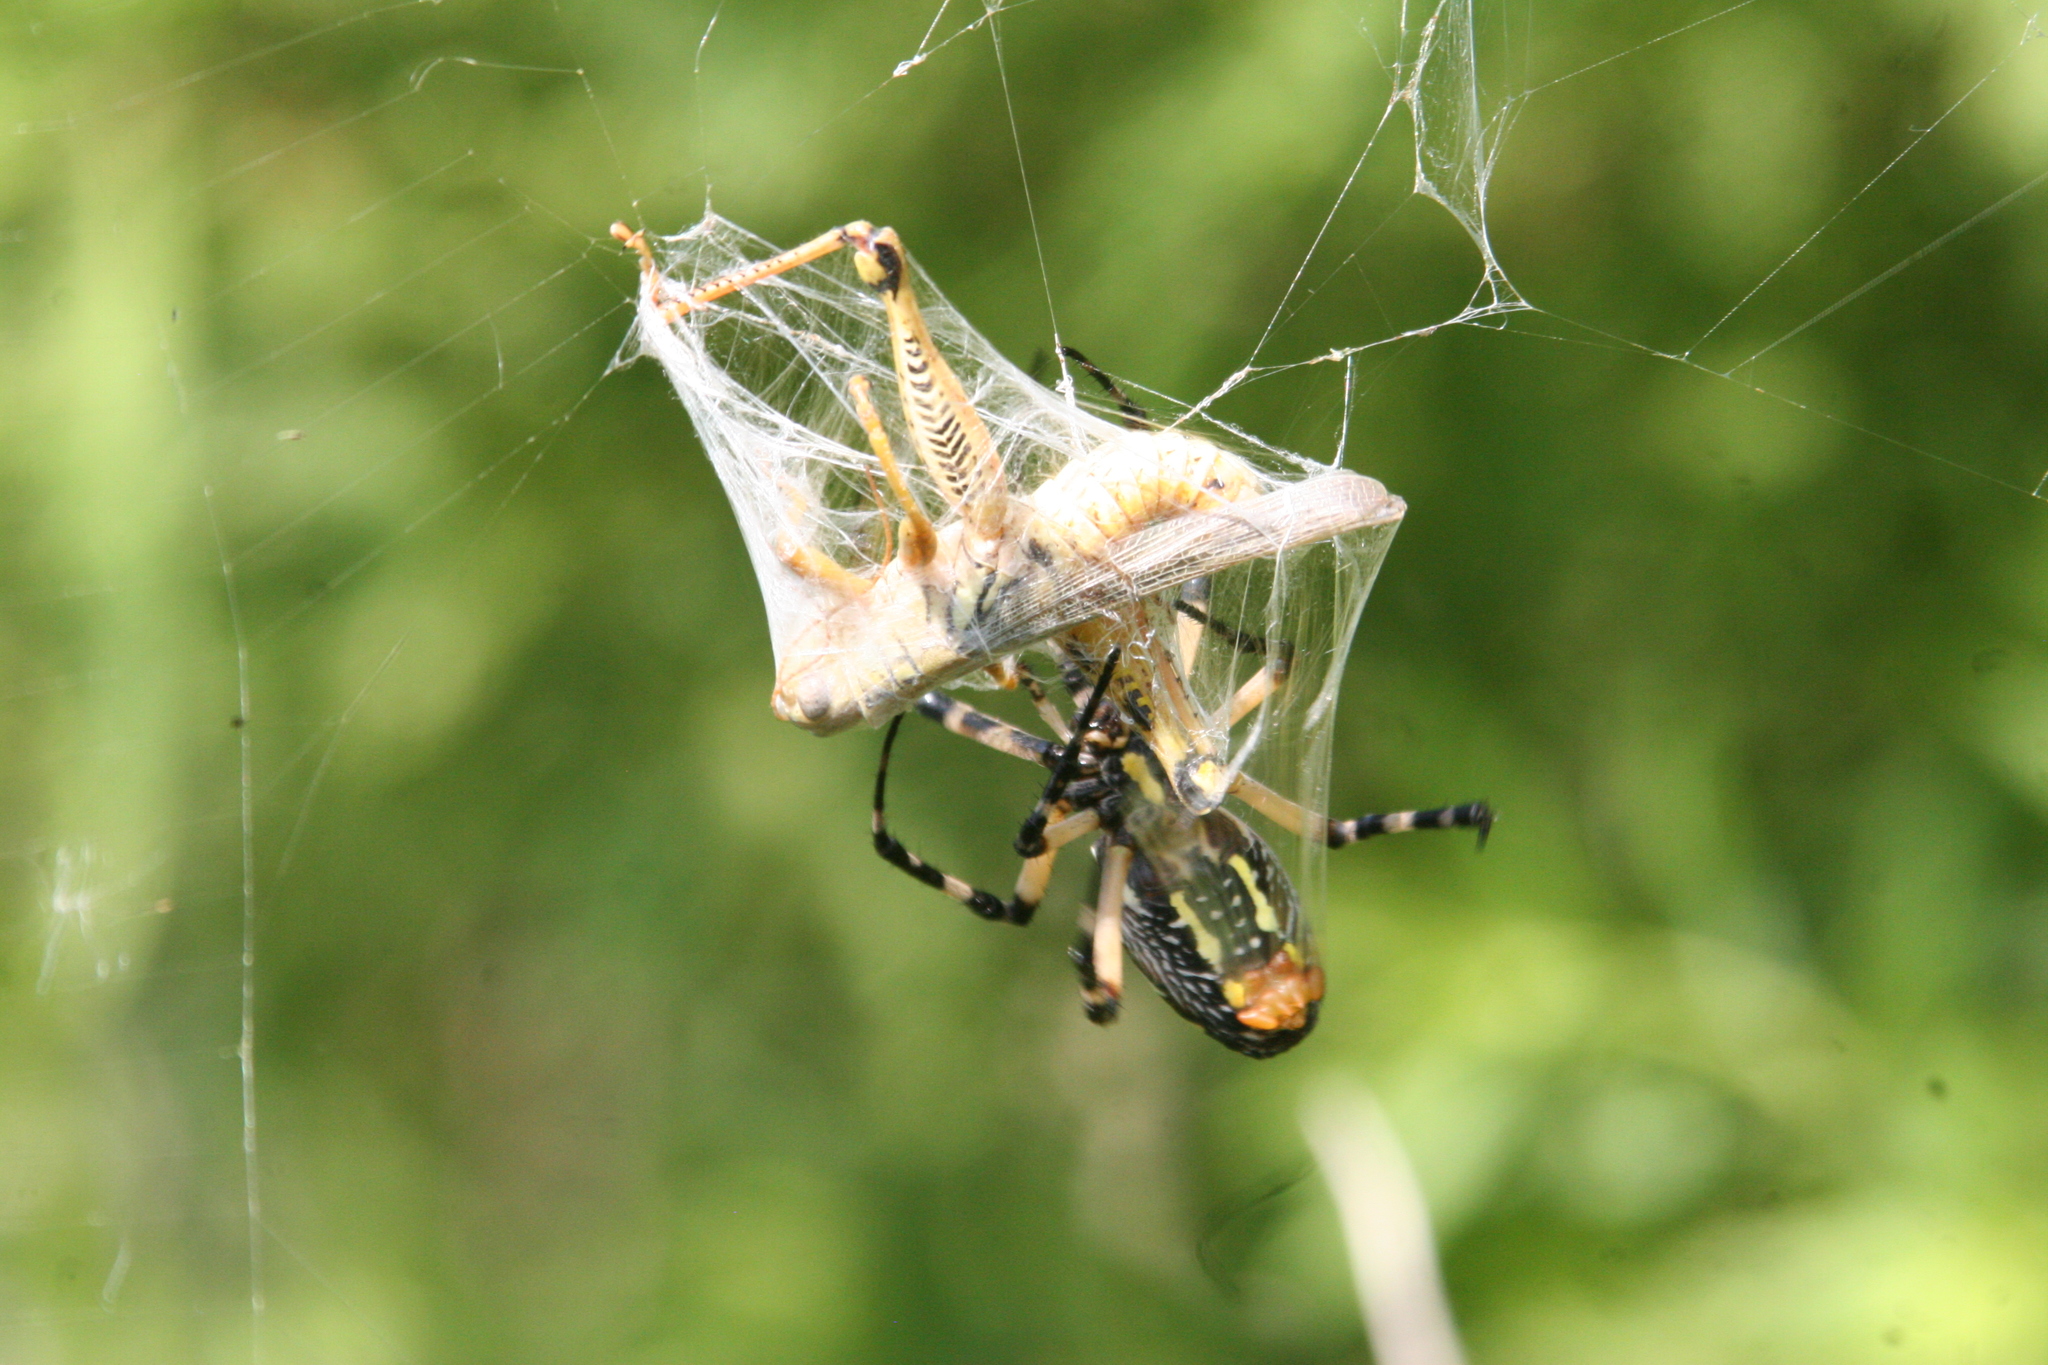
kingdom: Animalia
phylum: Arthropoda
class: Arachnida
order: Araneae
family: Araneidae
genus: Argiope
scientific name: Argiope aurantia
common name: Orb weavers
